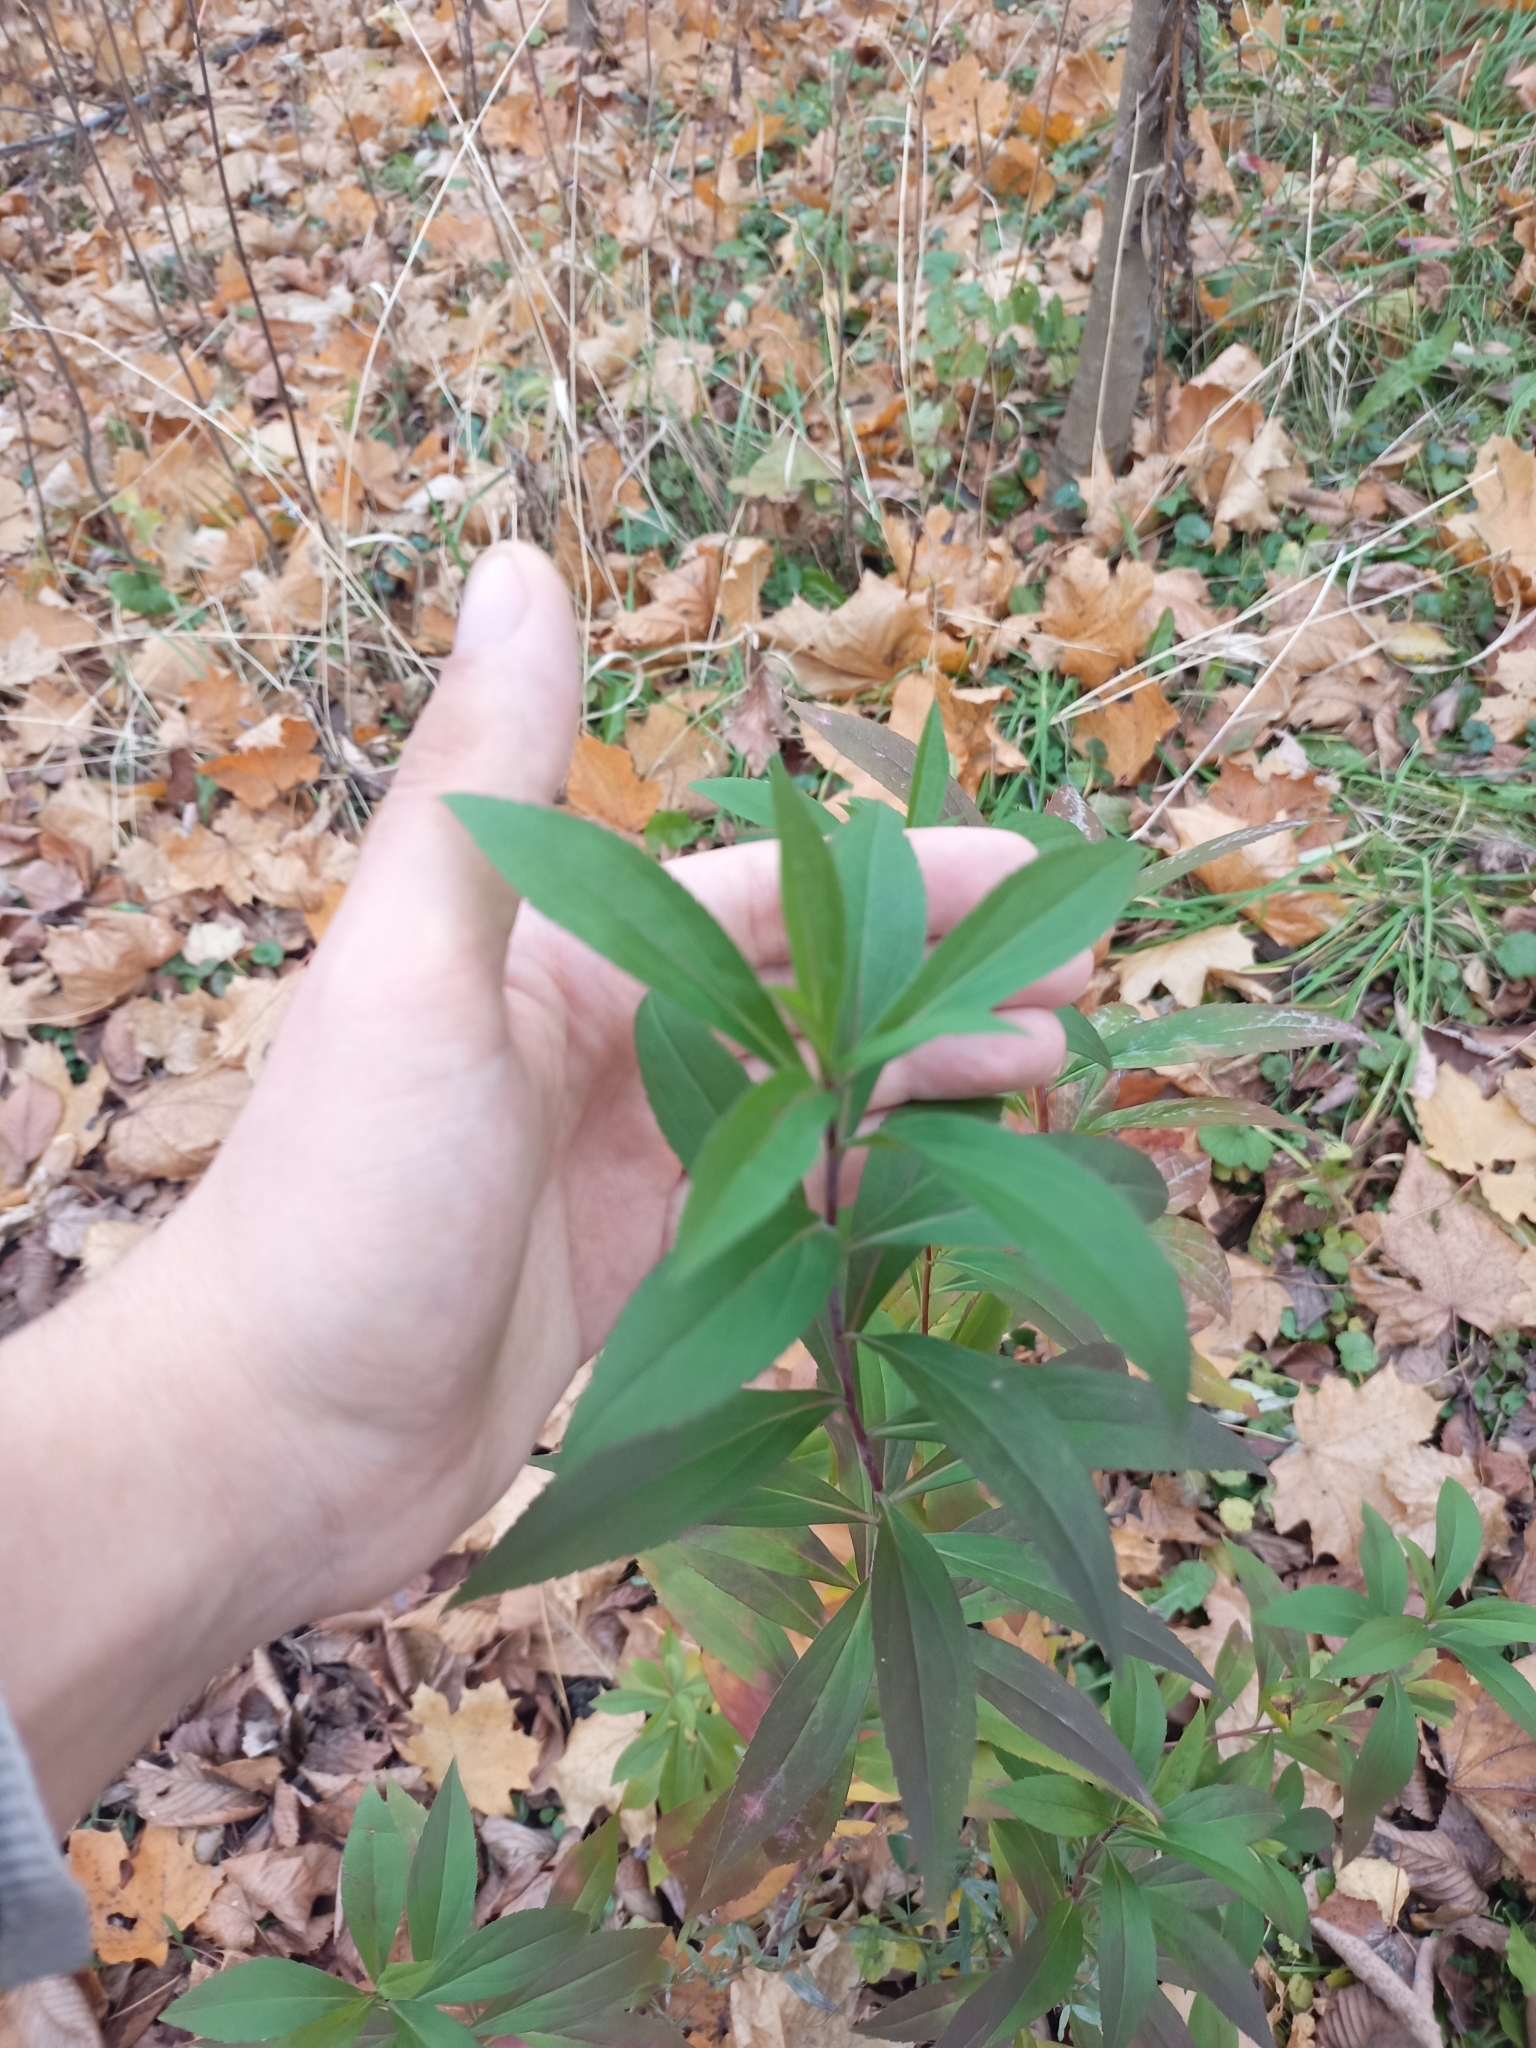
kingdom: Plantae
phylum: Tracheophyta
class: Magnoliopsida
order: Asterales
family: Asteraceae
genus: Solidago
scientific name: Solidago gigantea
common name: Giant goldenrod
